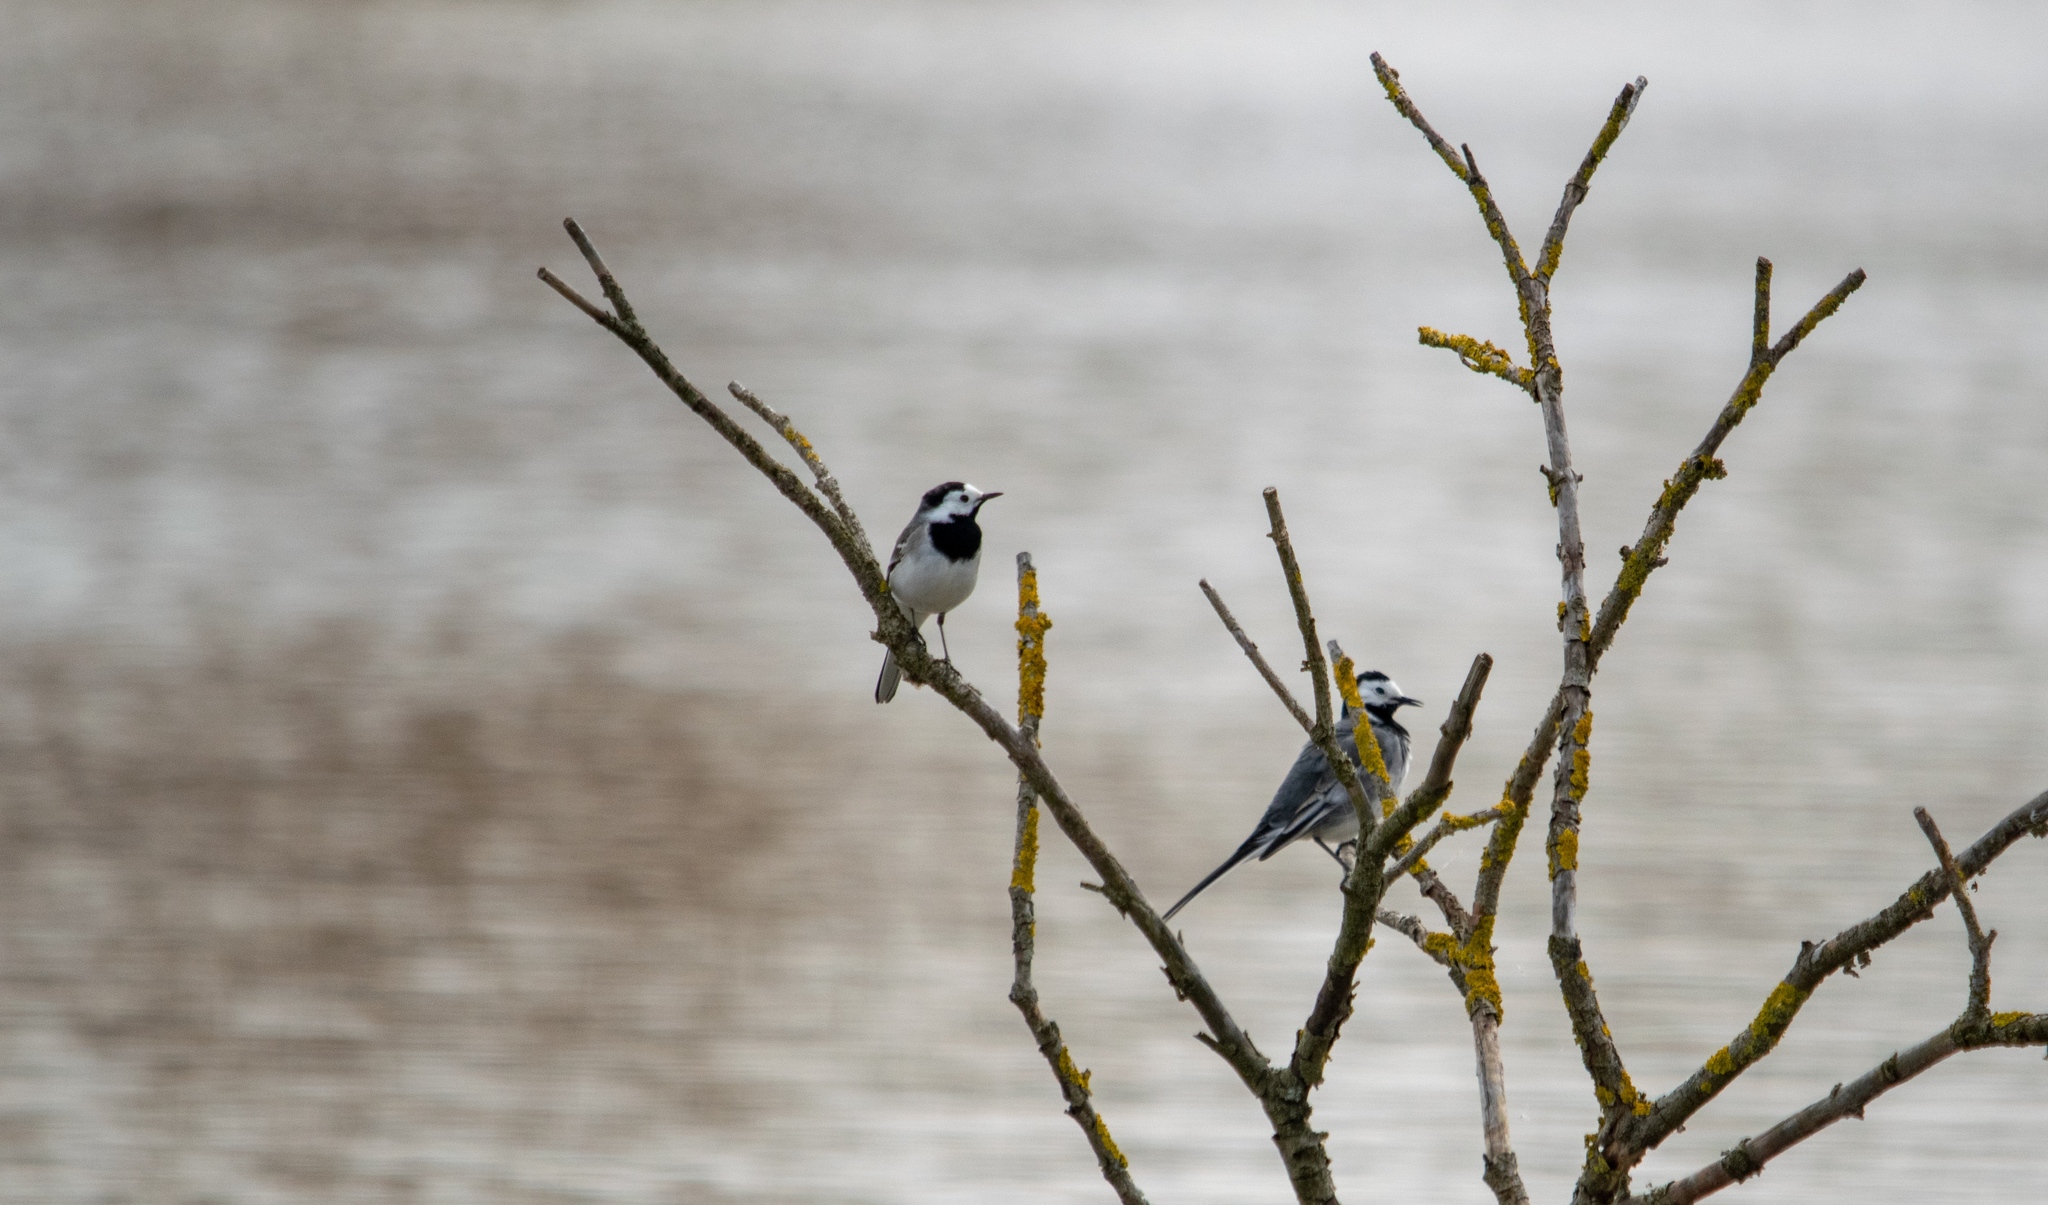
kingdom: Animalia
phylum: Chordata
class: Aves
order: Passeriformes
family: Motacillidae
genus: Motacilla
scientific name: Motacilla alba
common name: White wagtail
